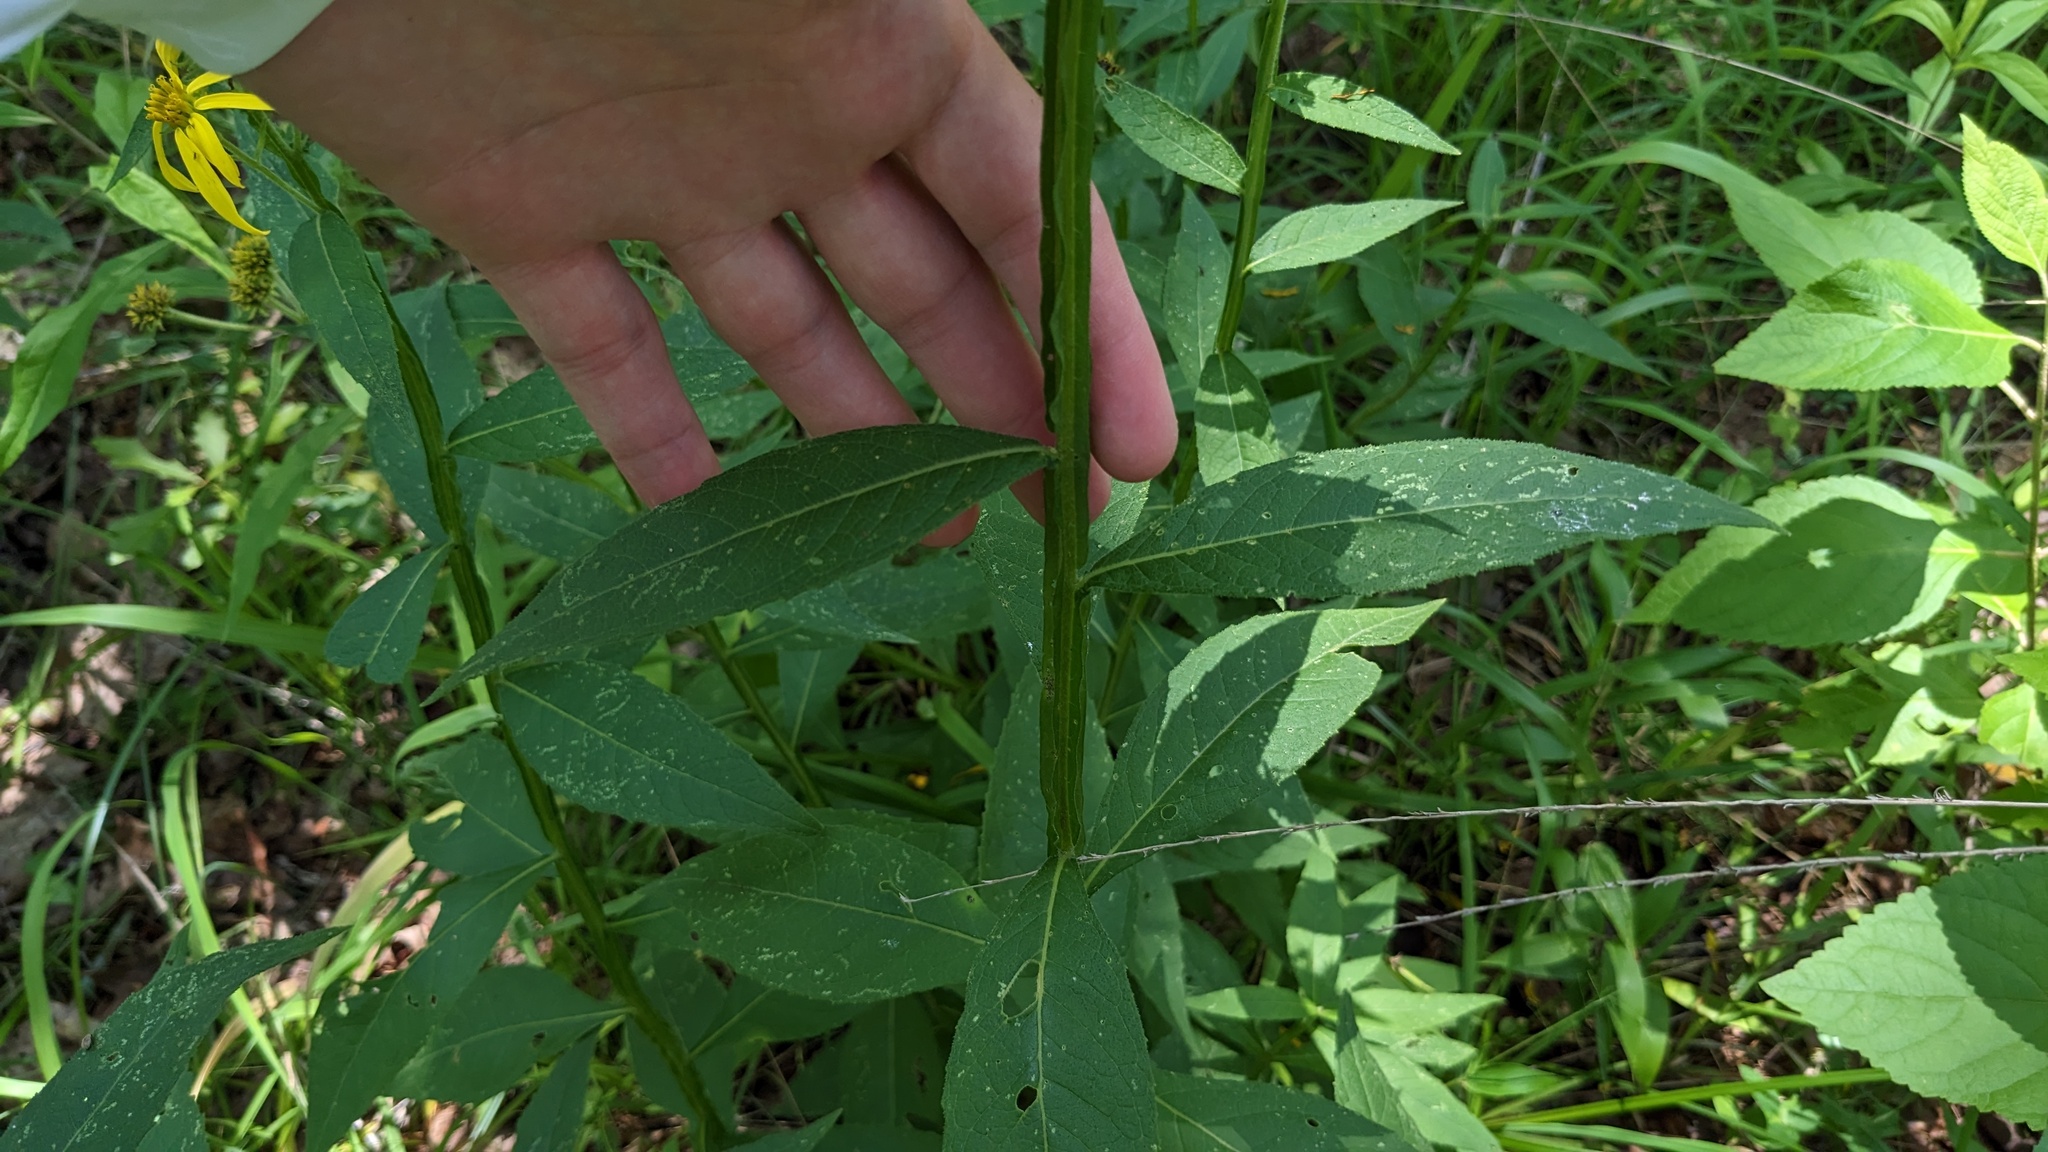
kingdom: Plantae
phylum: Tracheophyta
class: Magnoliopsida
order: Asterales
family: Asteraceae
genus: Verbesina
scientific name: Verbesina helianthoides
